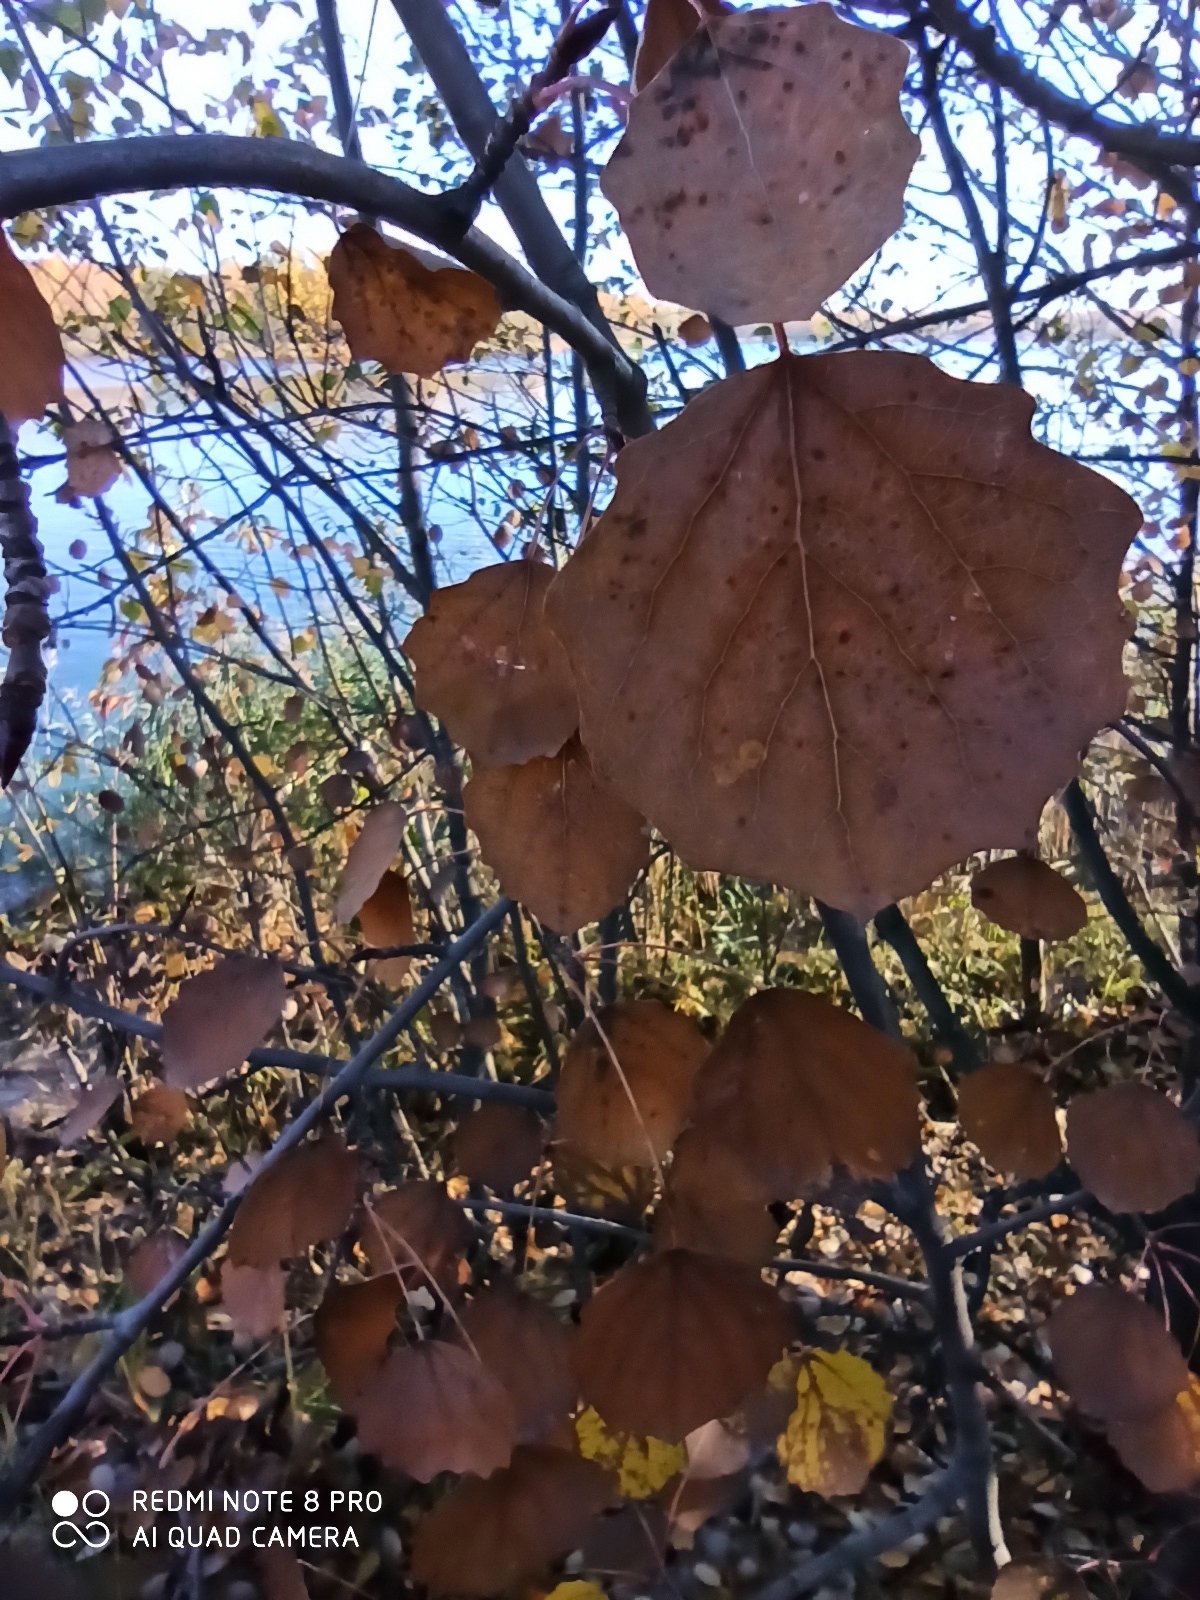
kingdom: Plantae
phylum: Tracheophyta
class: Magnoliopsida
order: Malpighiales
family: Salicaceae
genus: Populus
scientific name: Populus tremula
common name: European aspen
